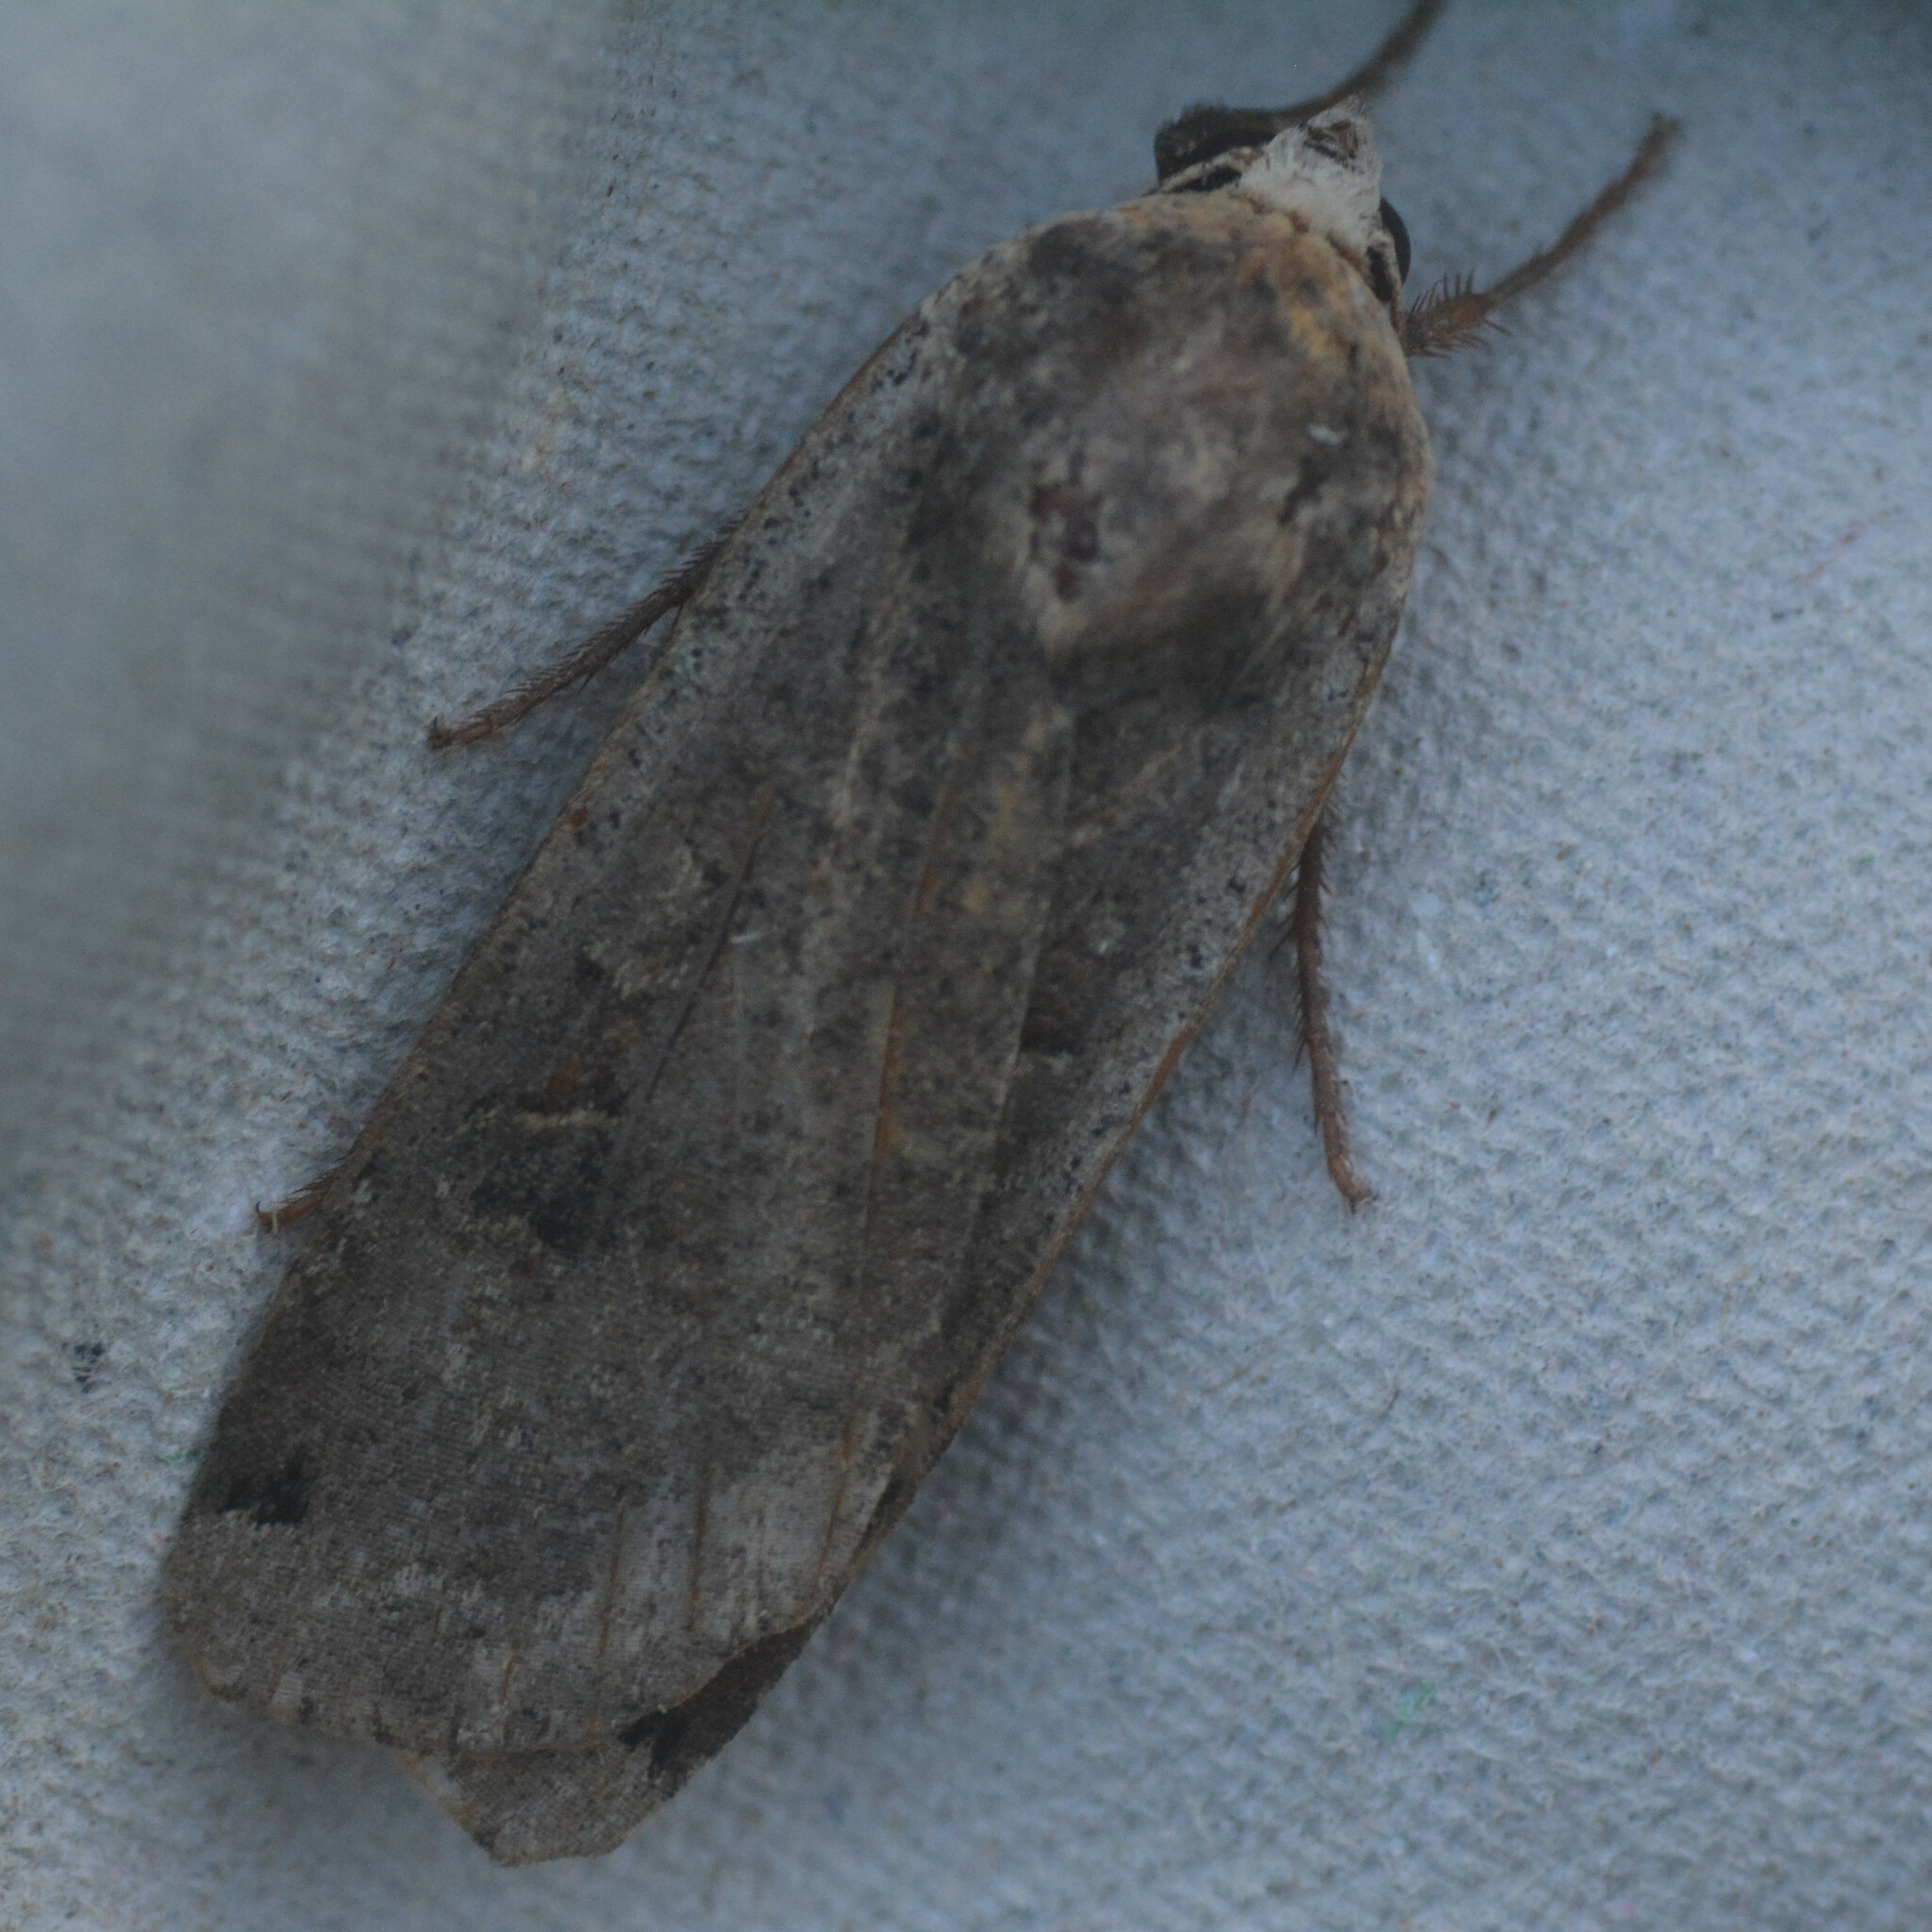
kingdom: Animalia
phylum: Arthropoda
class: Insecta
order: Lepidoptera
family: Noctuidae
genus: Noctua
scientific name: Noctua pronuba
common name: Large yellow underwing
